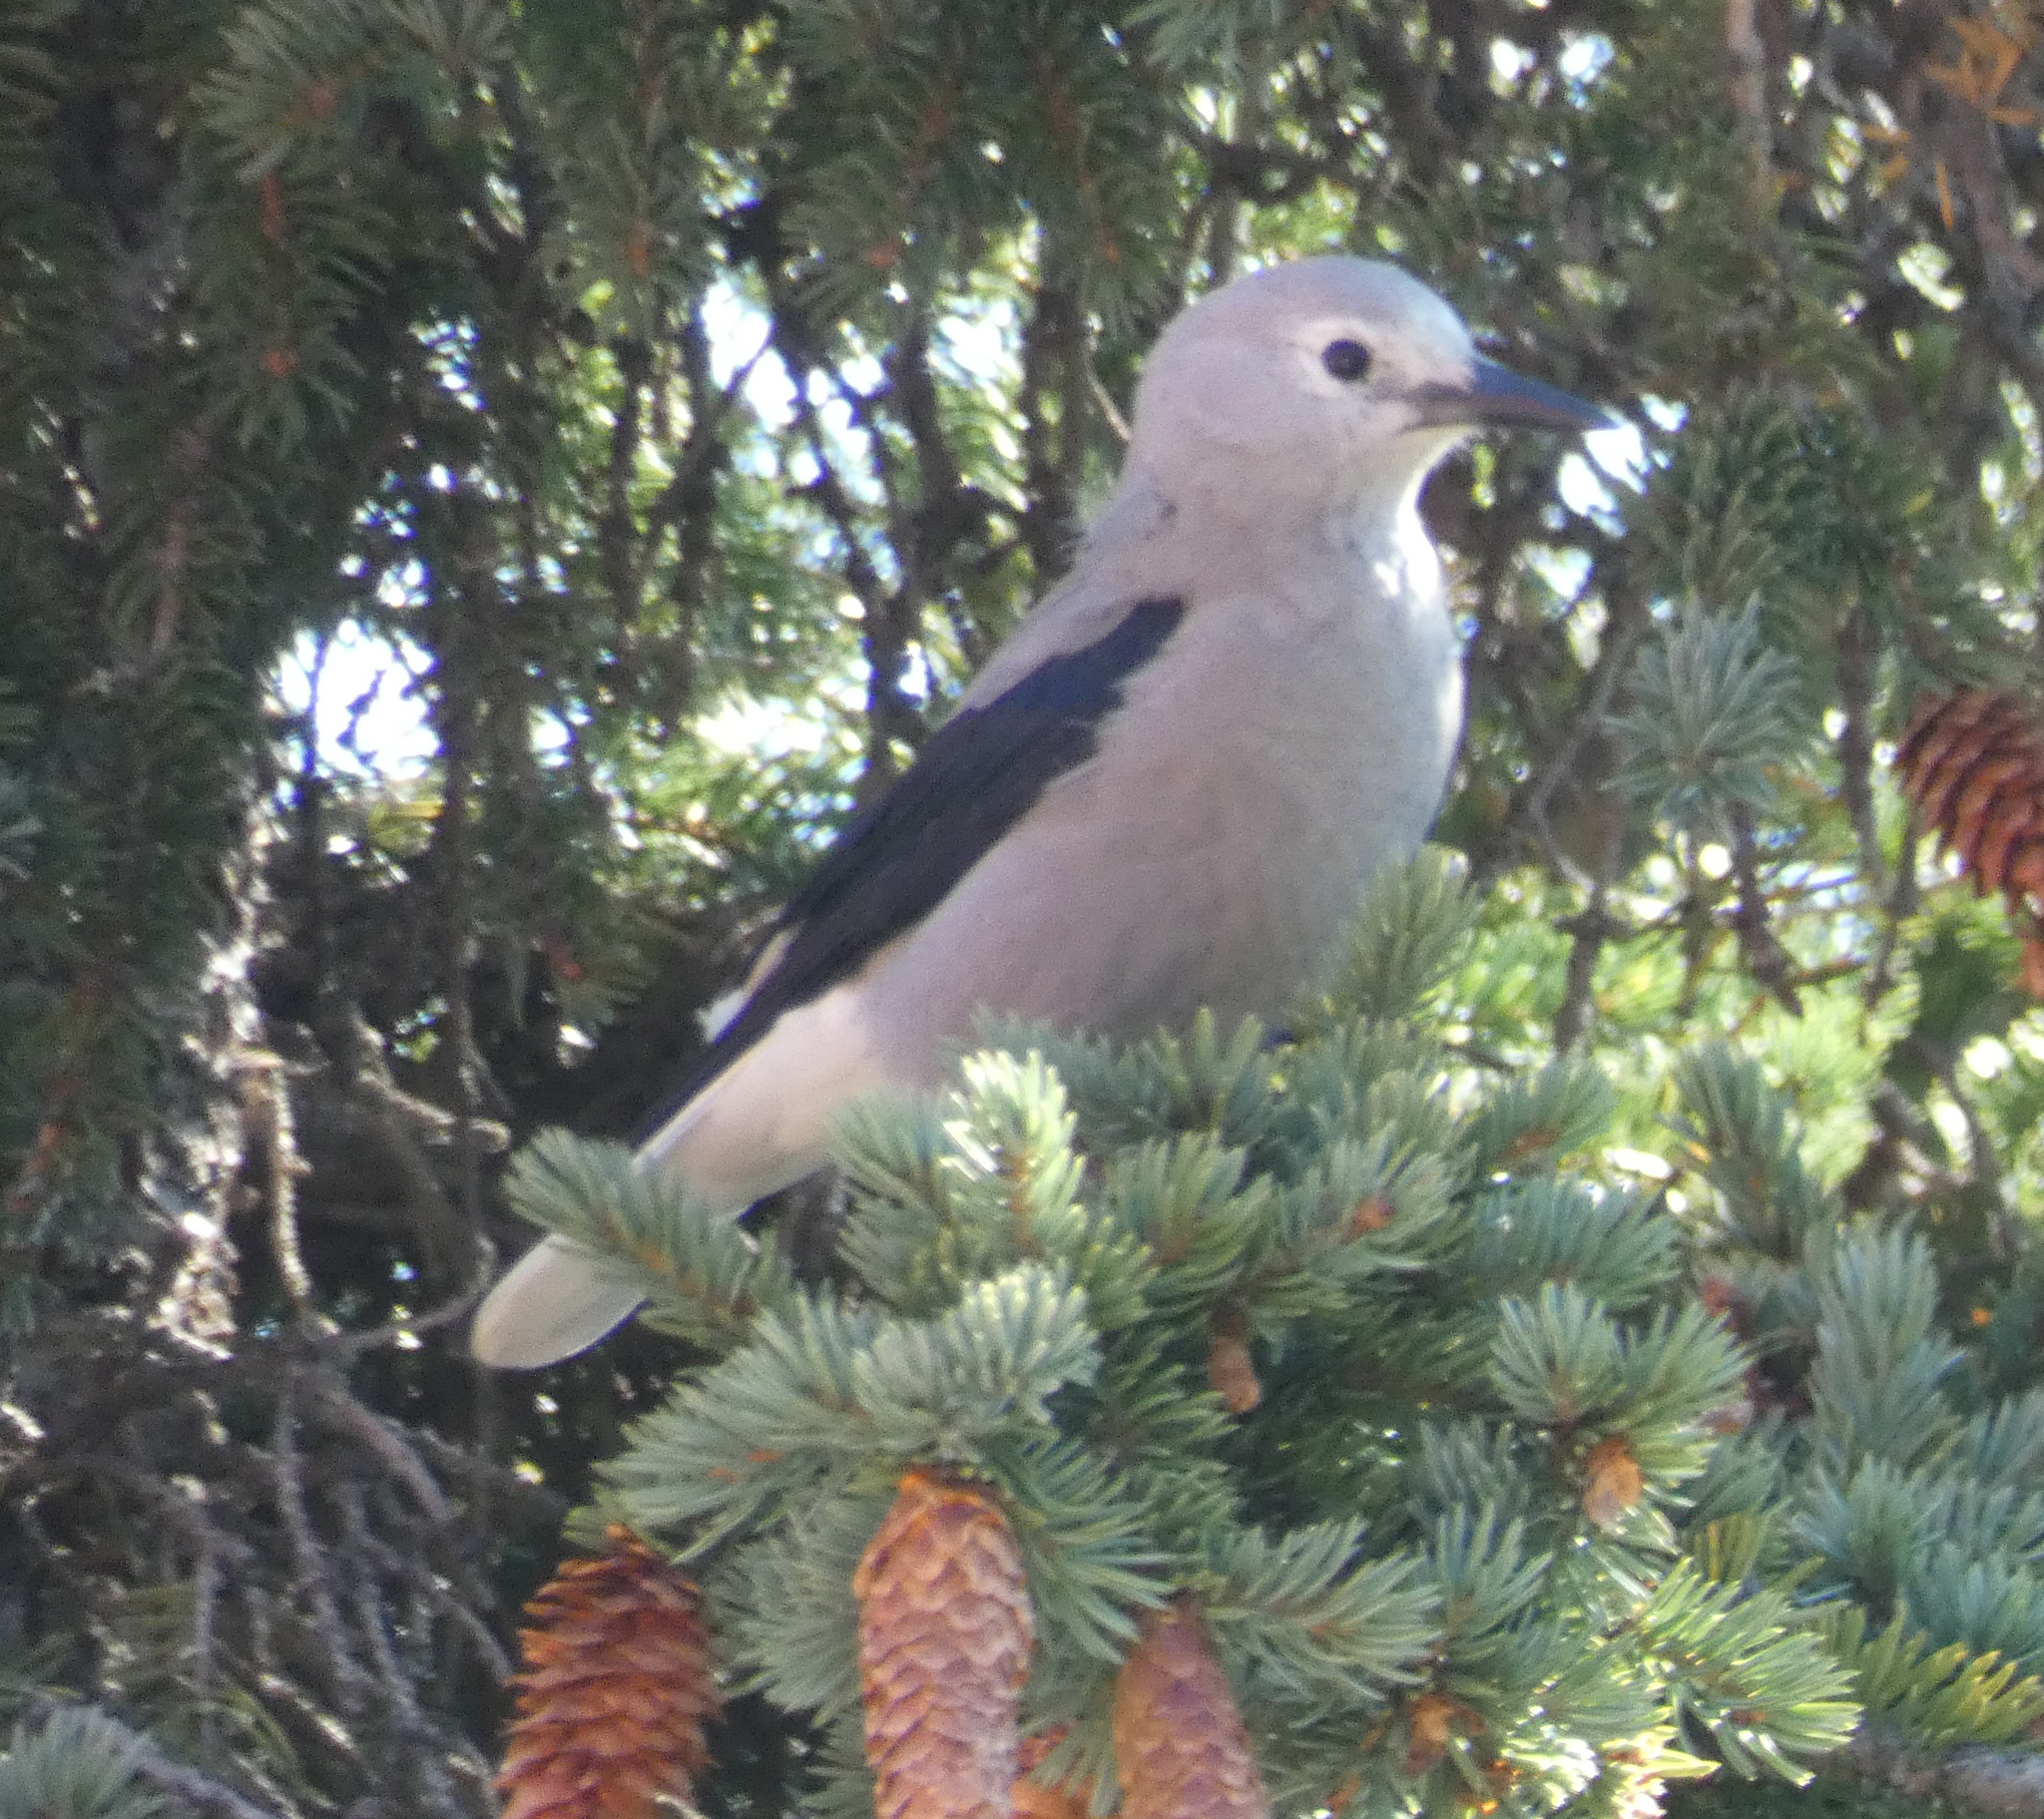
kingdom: Animalia
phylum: Chordata
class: Aves
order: Passeriformes
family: Corvidae
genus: Nucifraga
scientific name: Nucifraga columbiana
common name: Clark's nutcracker
